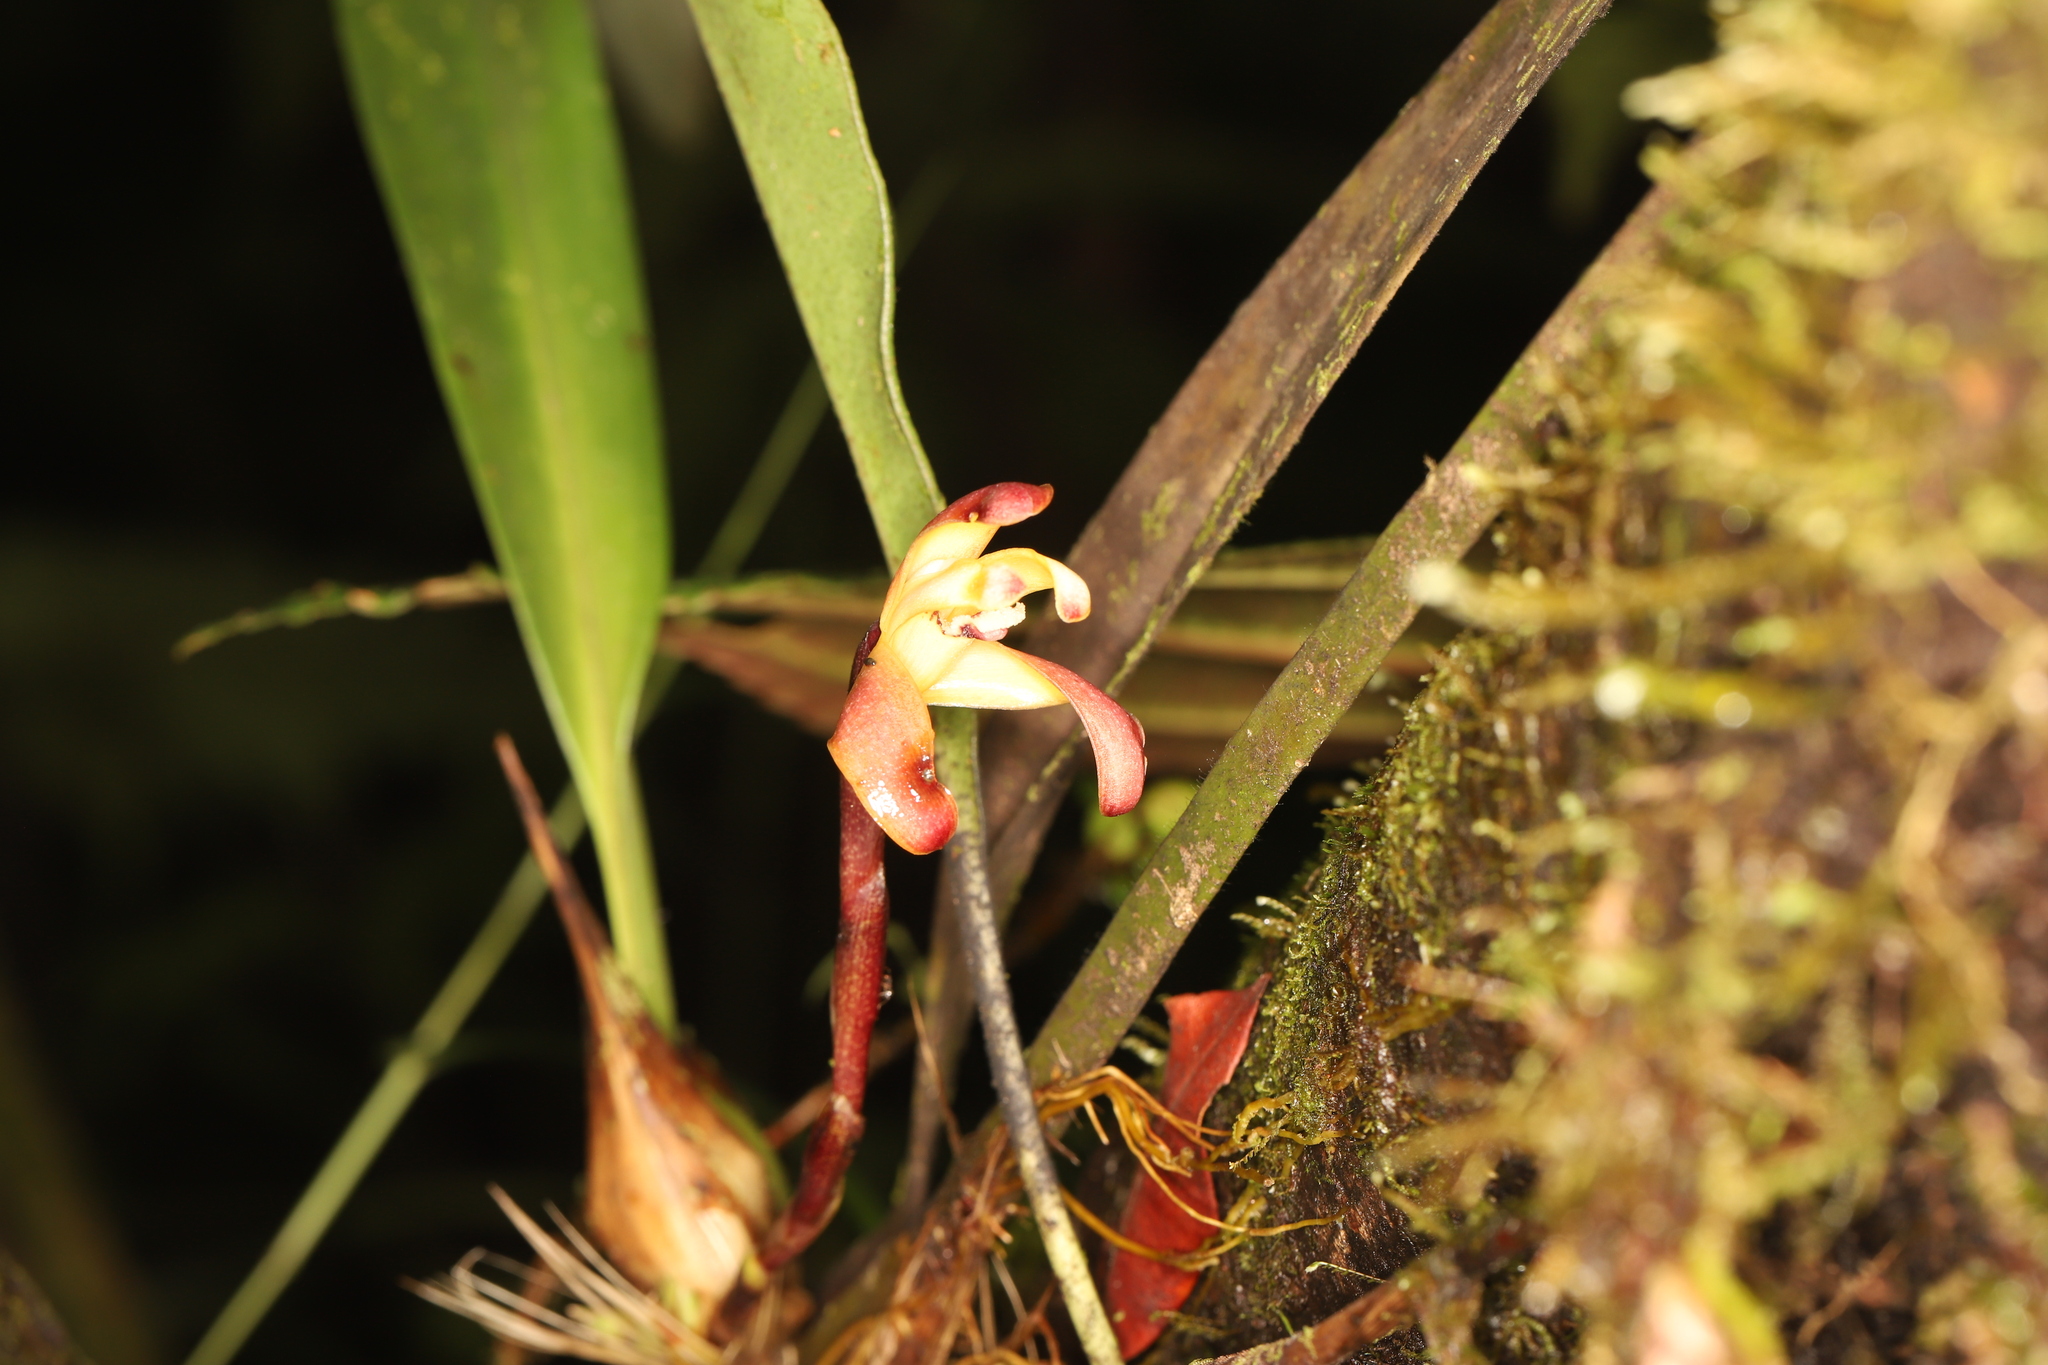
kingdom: Plantae
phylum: Tracheophyta
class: Liliopsida
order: Asparagales
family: Orchidaceae
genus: Maxillaria
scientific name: Maxillaria porrecta
